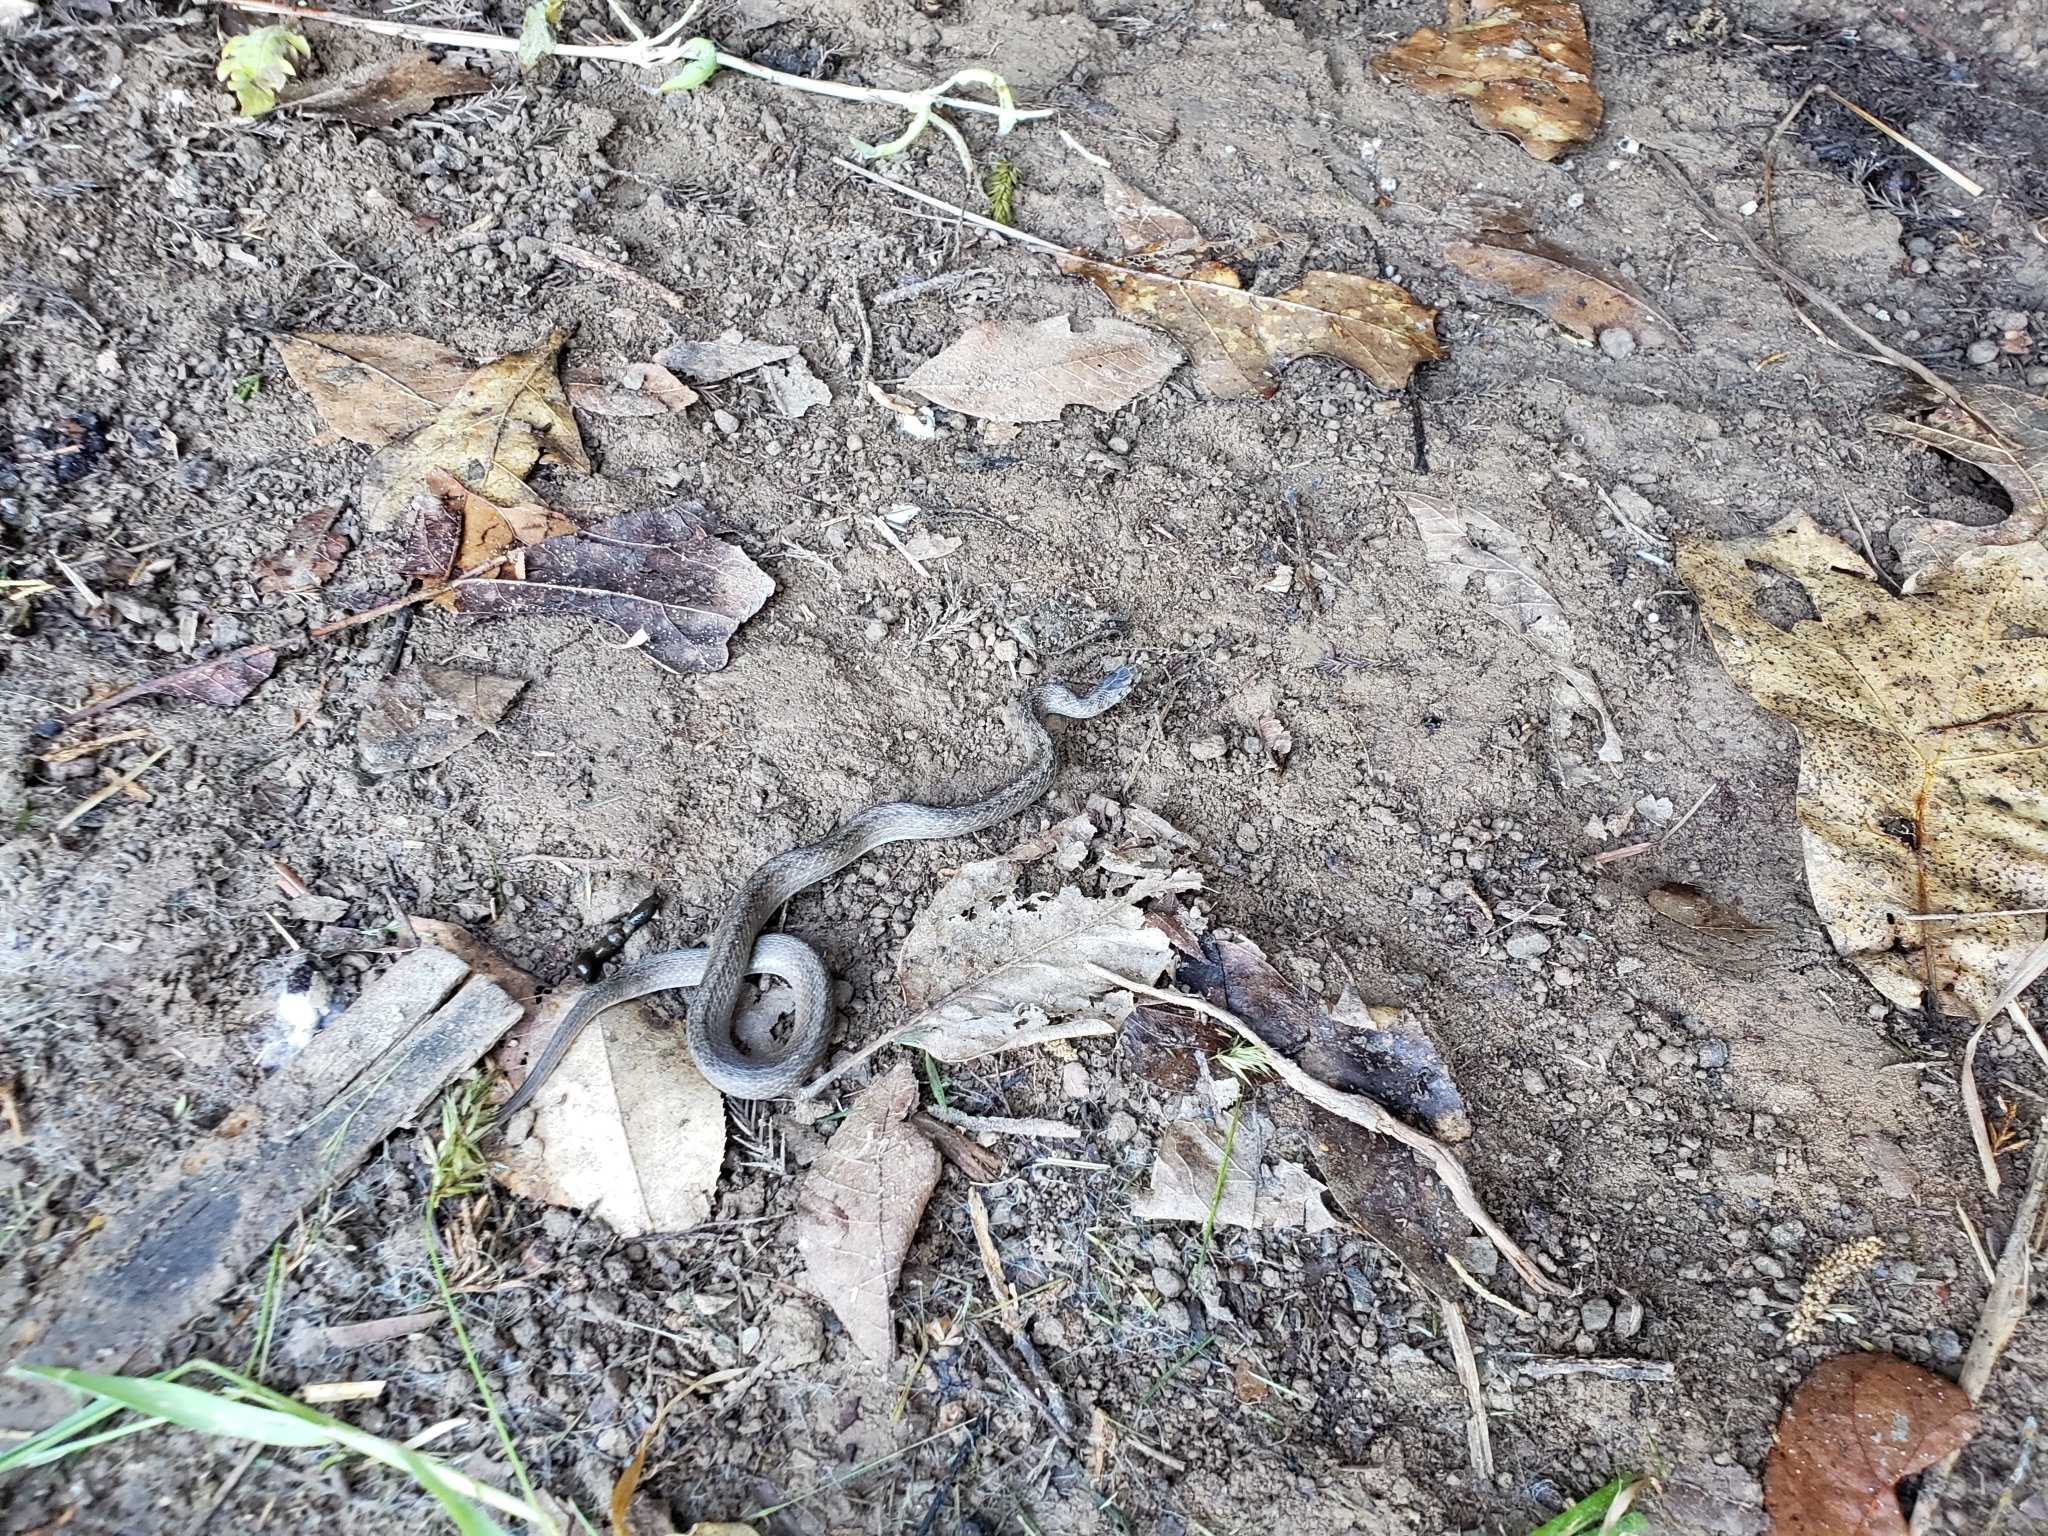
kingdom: Animalia
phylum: Chordata
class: Squamata
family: Colubridae
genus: Storeria
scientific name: Storeria dekayi
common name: (dekay’s) brown snake
